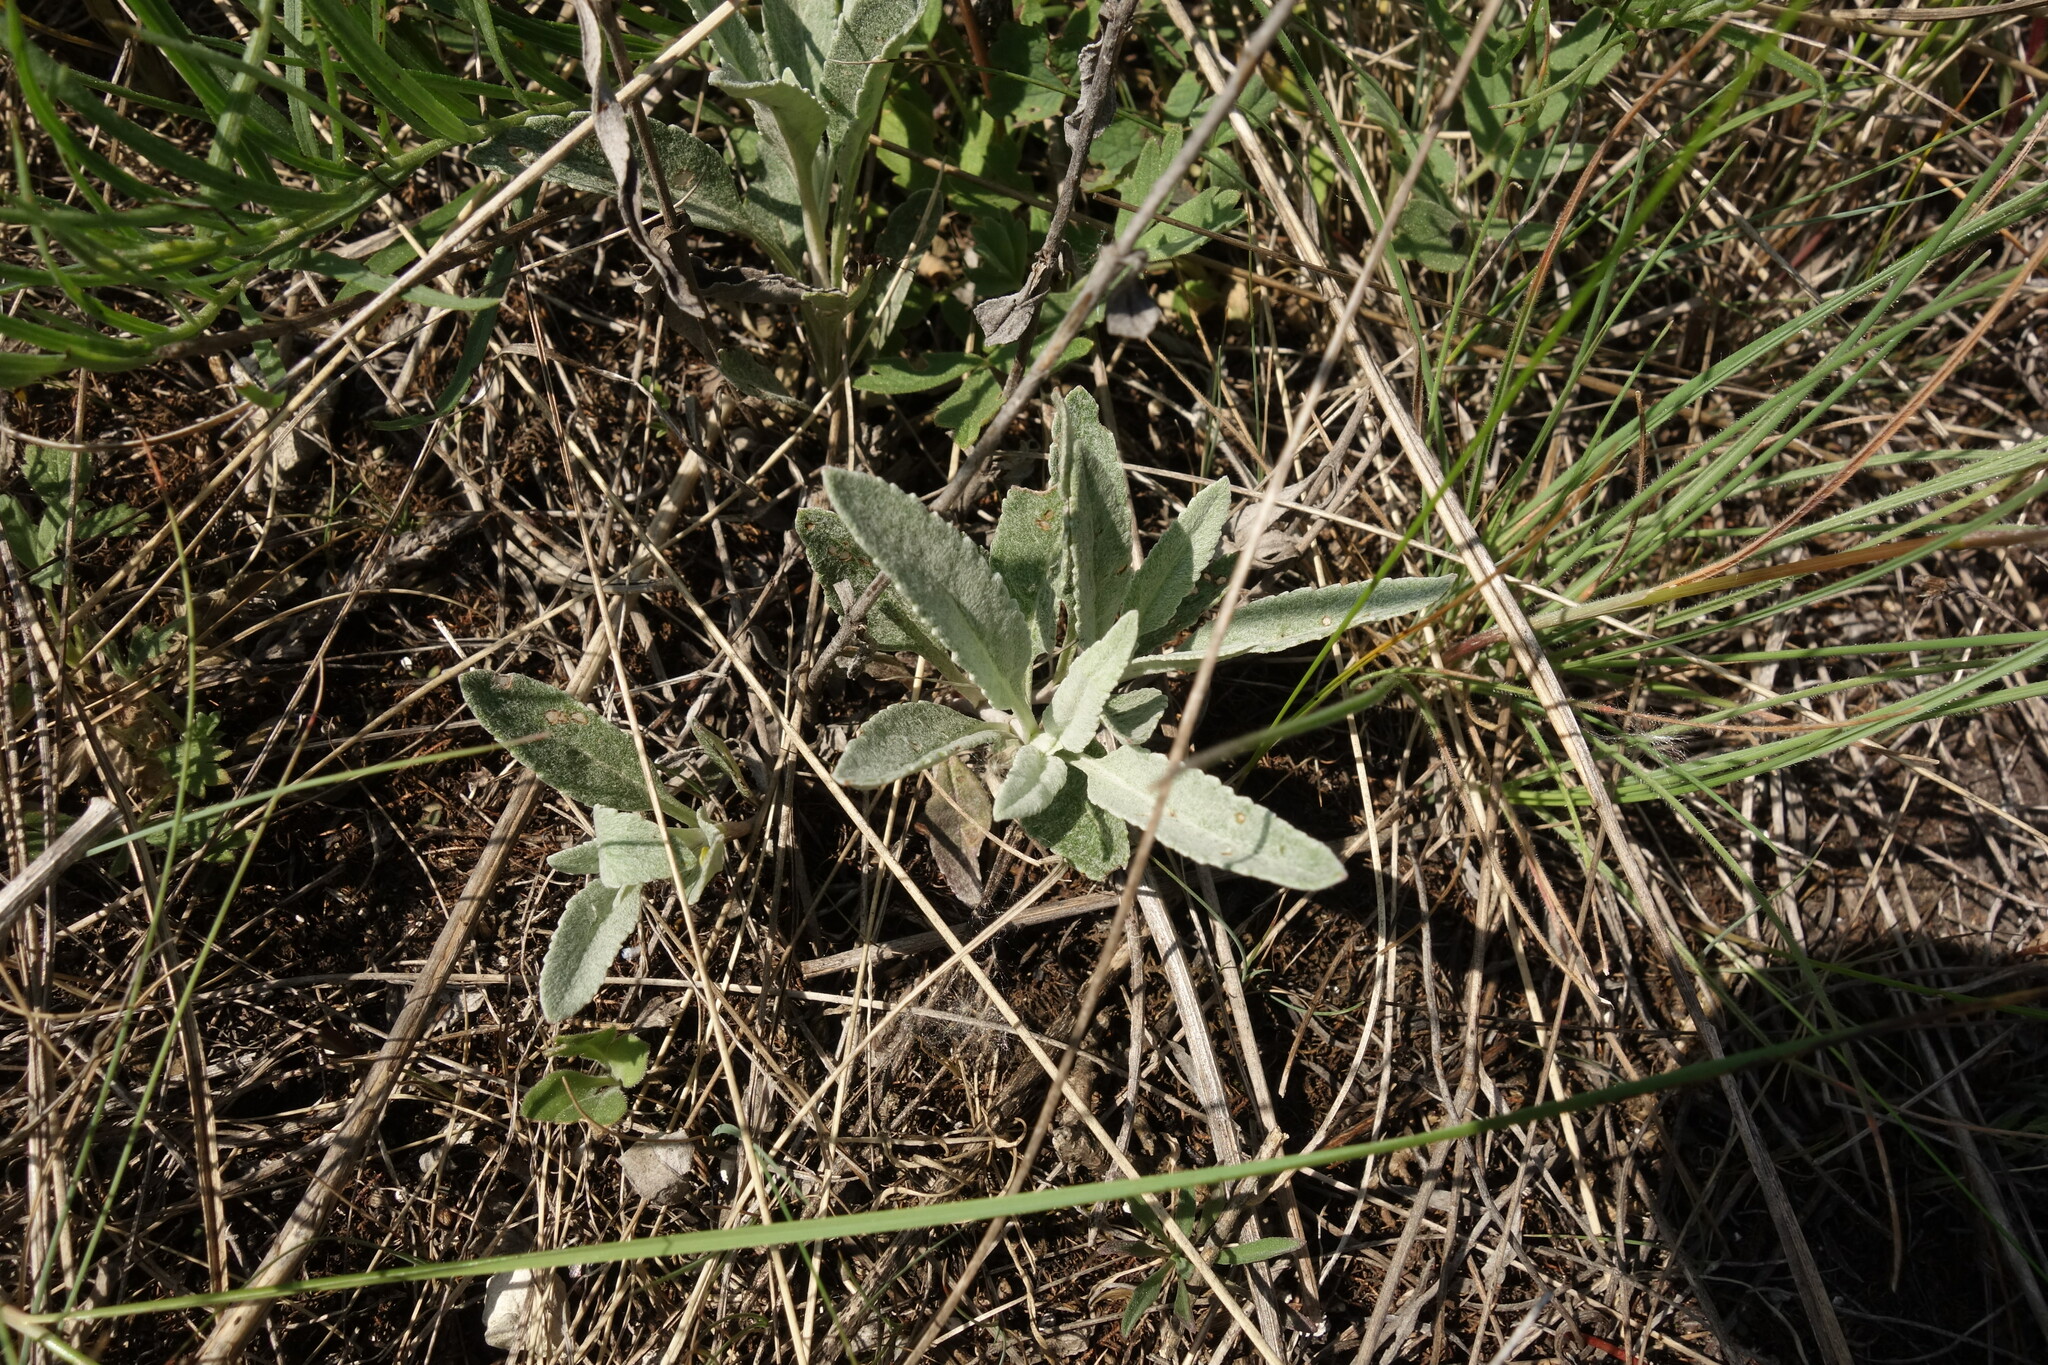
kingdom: Plantae
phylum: Tracheophyta
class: Magnoliopsida
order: Lamiales
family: Plantaginaceae
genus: Veronica
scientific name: Veronica incana
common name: Silver speedwell
